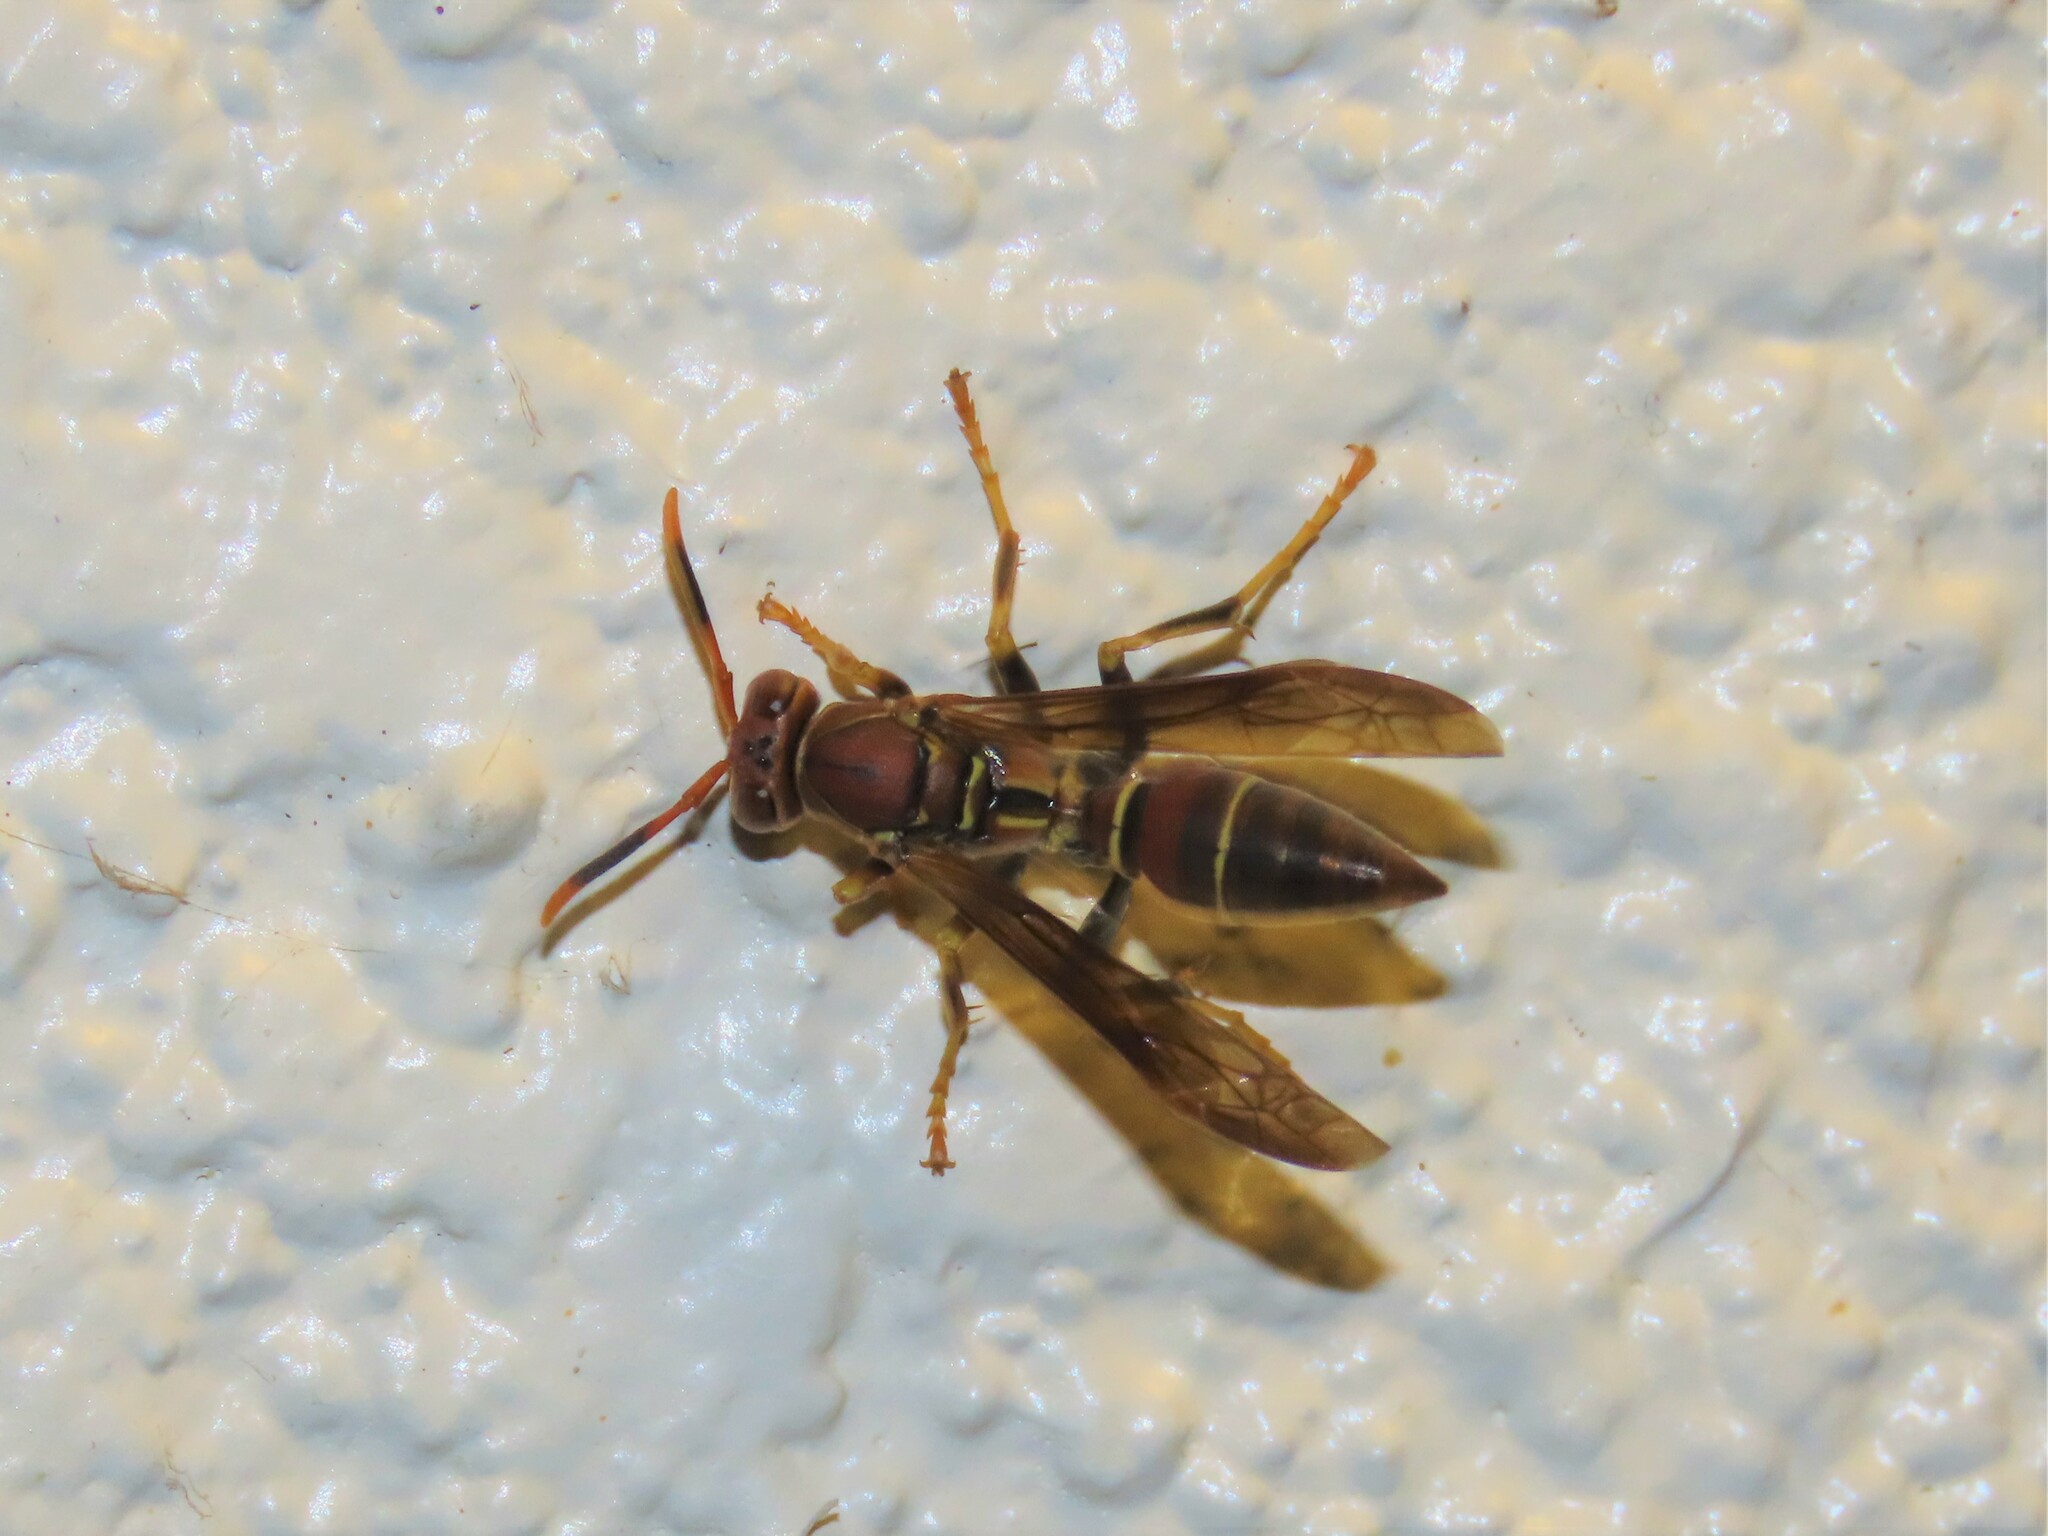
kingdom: Animalia
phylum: Arthropoda
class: Insecta
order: Hymenoptera
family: Eumenidae
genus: Polistes
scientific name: Polistes bahamensis
